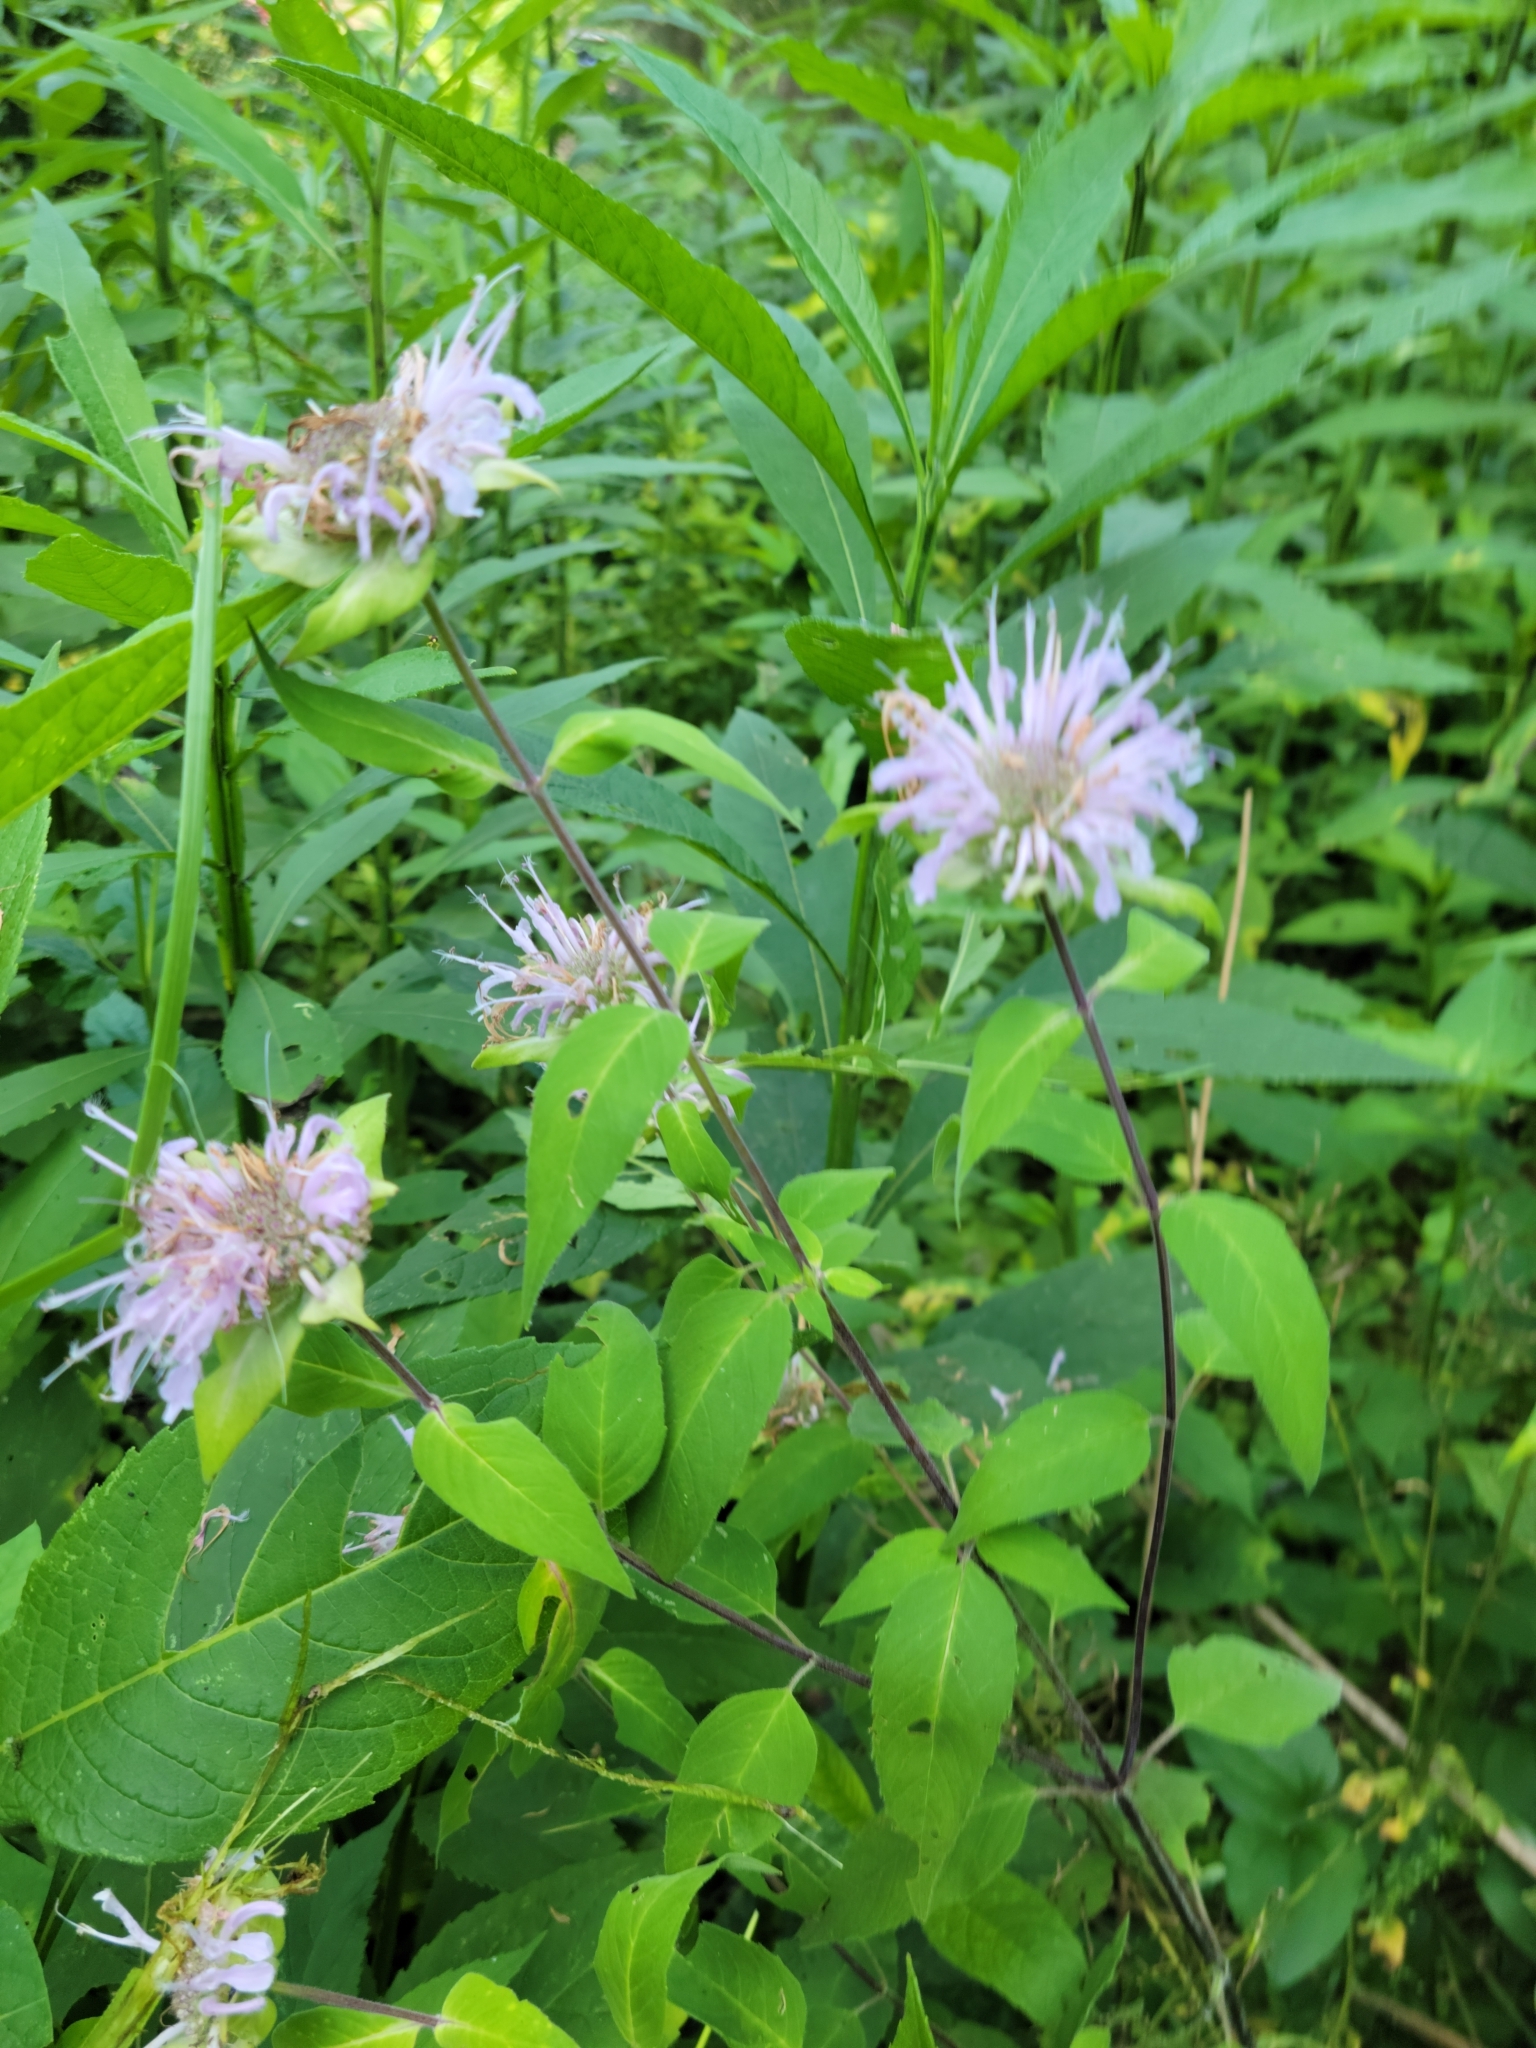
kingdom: Plantae
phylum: Tracheophyta
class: Magnoliopsida
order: Lamiales
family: Lamiaceae
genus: Monarda
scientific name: Monarda fistulosa
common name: Purple beebalm
